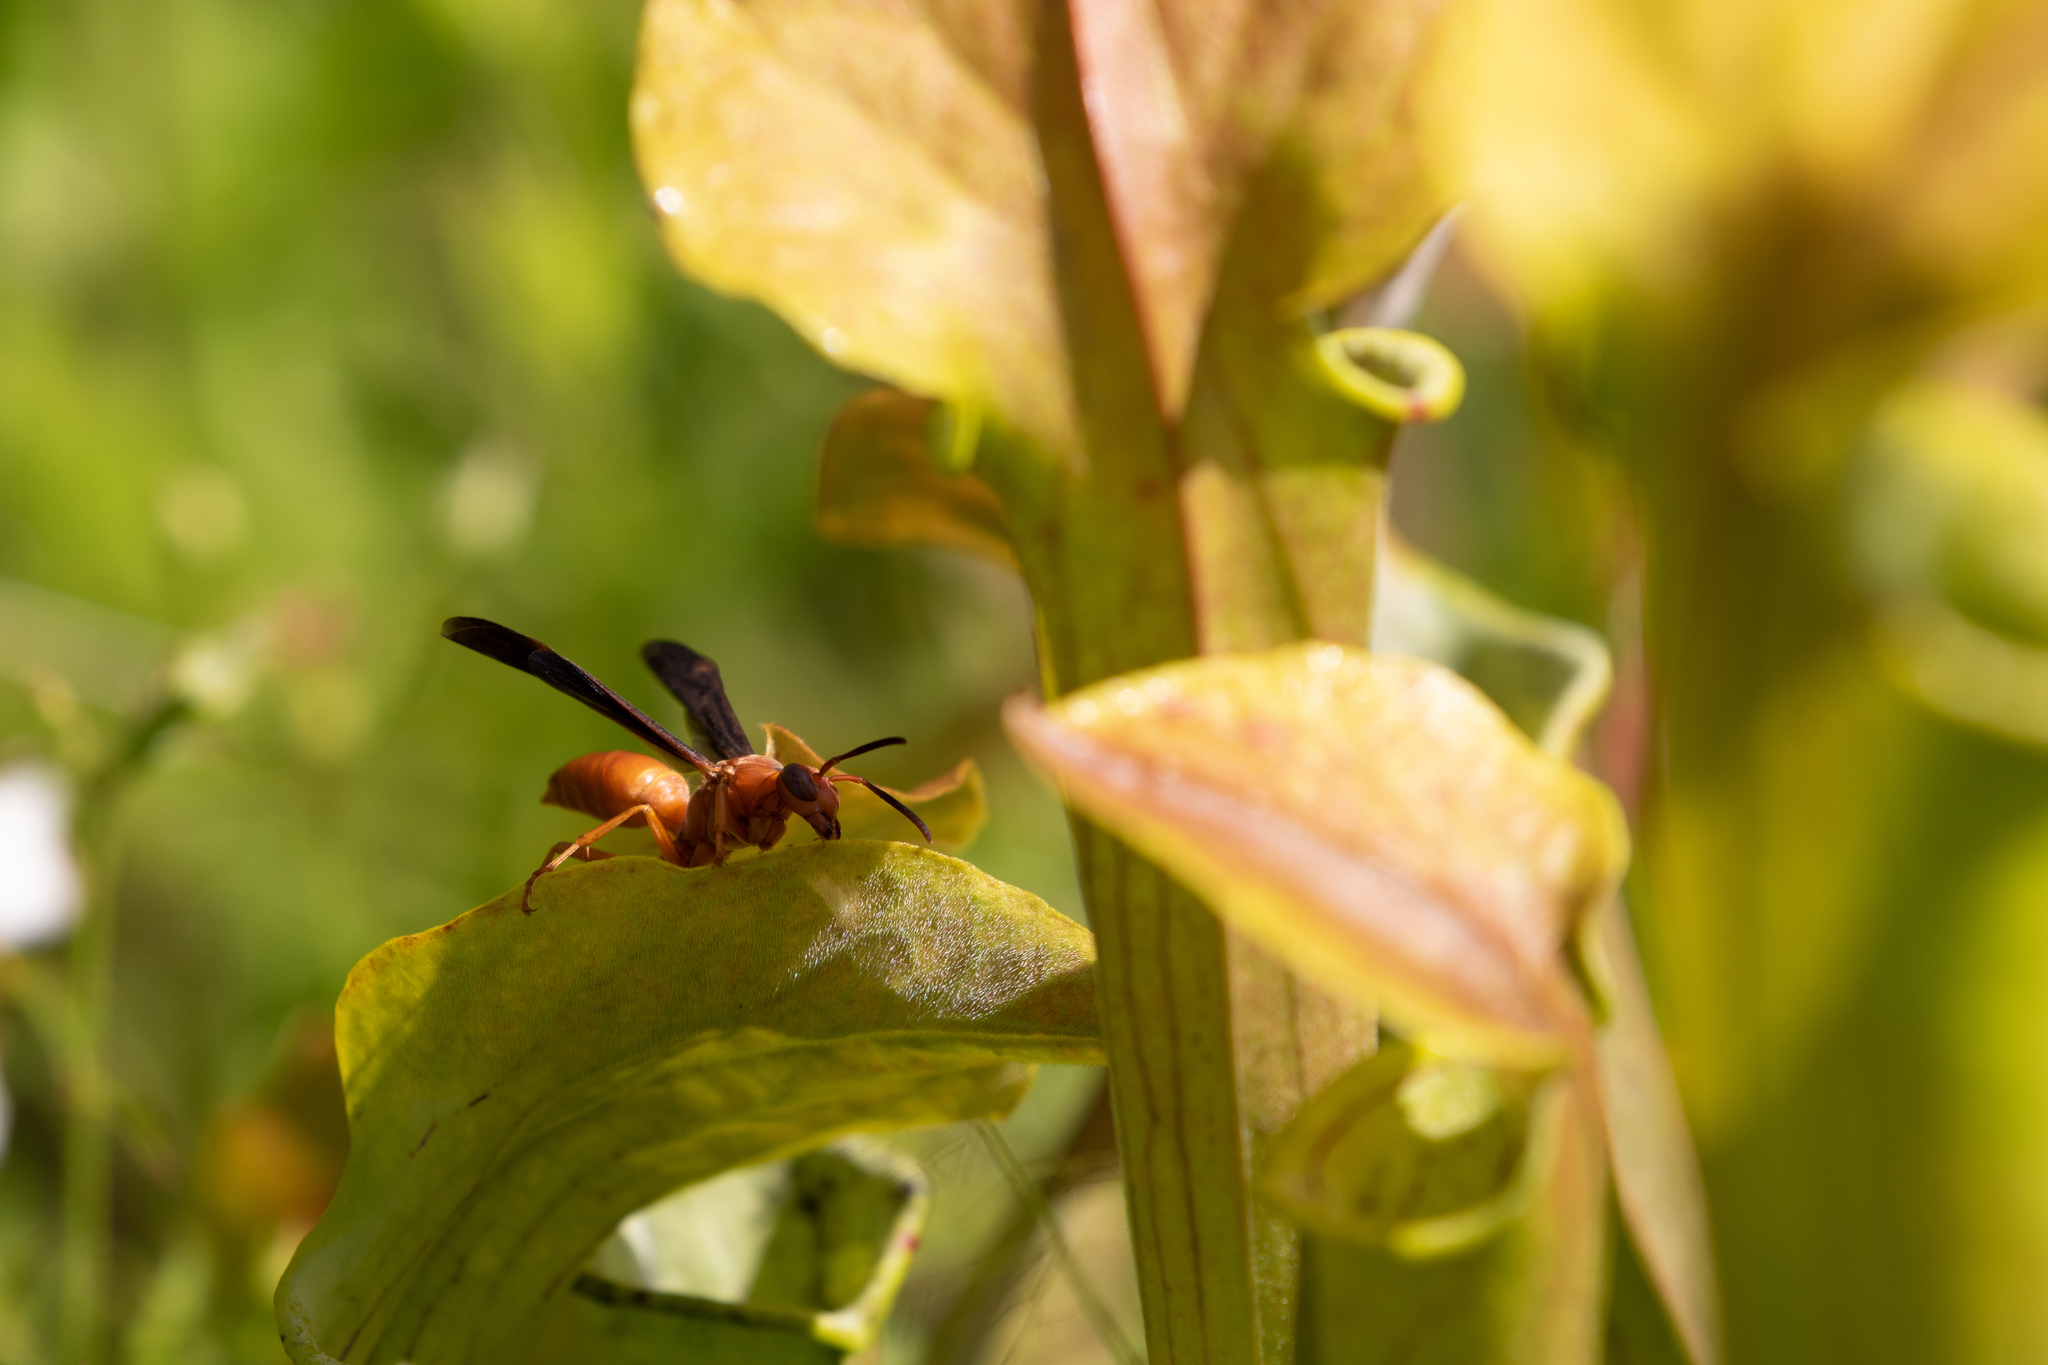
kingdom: Animalia
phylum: Arthropoda
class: Insecta
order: Hymenoptera
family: Vespidae
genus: Fuscopolistes
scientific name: Fuscopolistes
